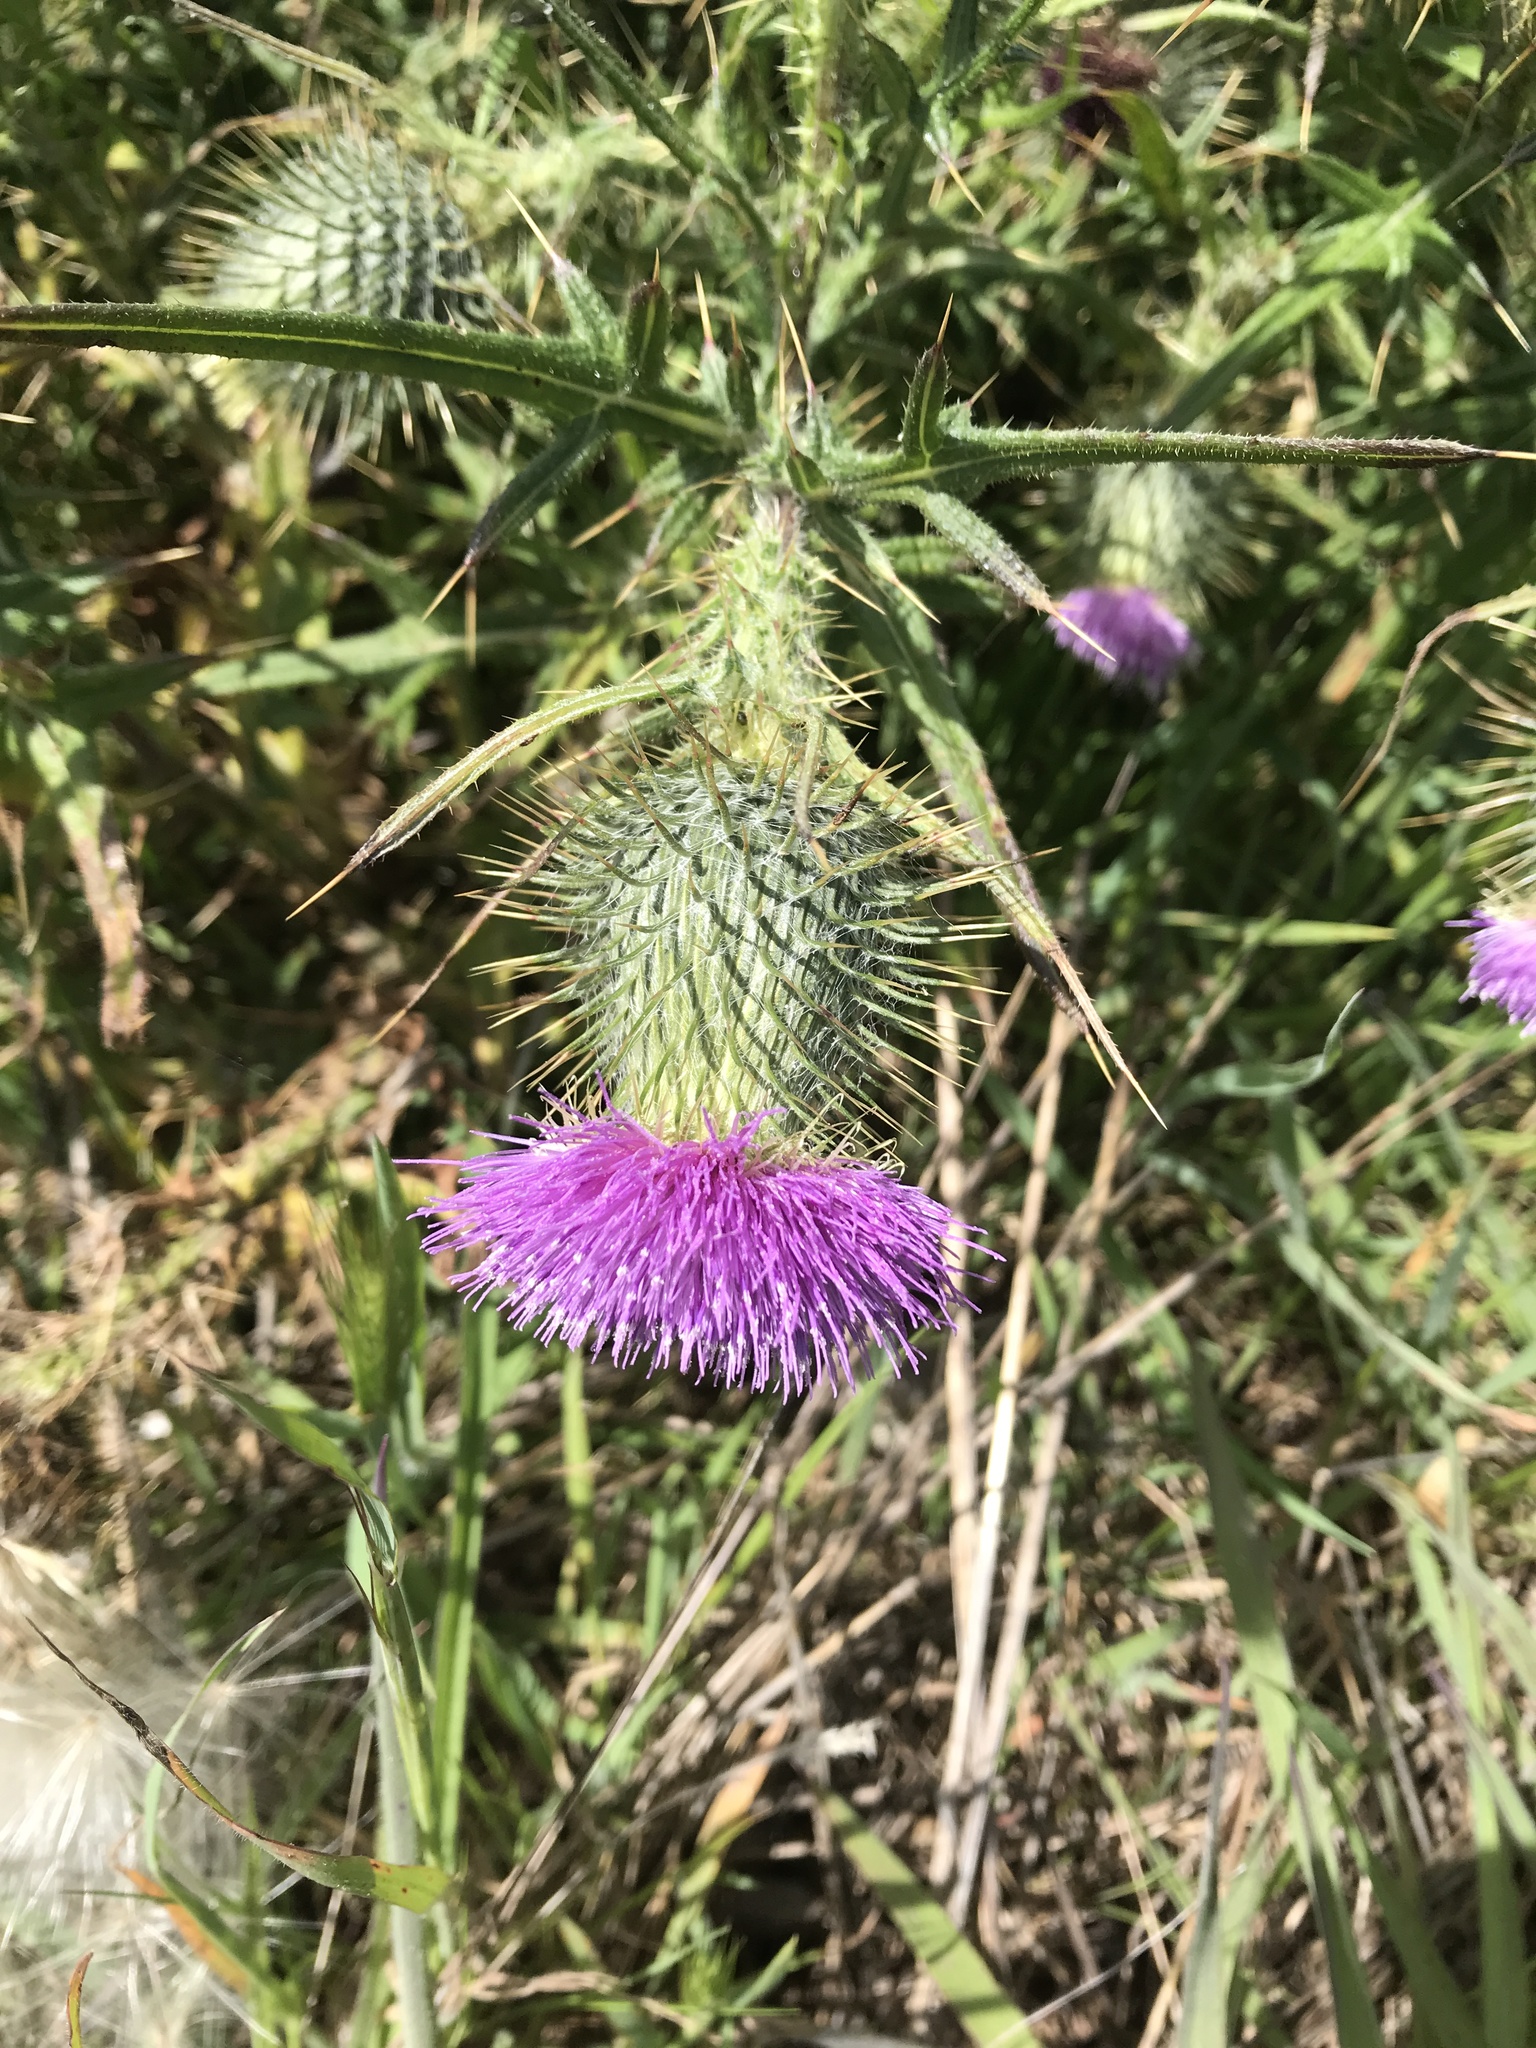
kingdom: Plantae
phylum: Tracheophyta
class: Magnoliopsida
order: Asterales
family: Asteraceae
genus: Cirsium
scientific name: Cirsium vulgare
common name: Bull thistle
